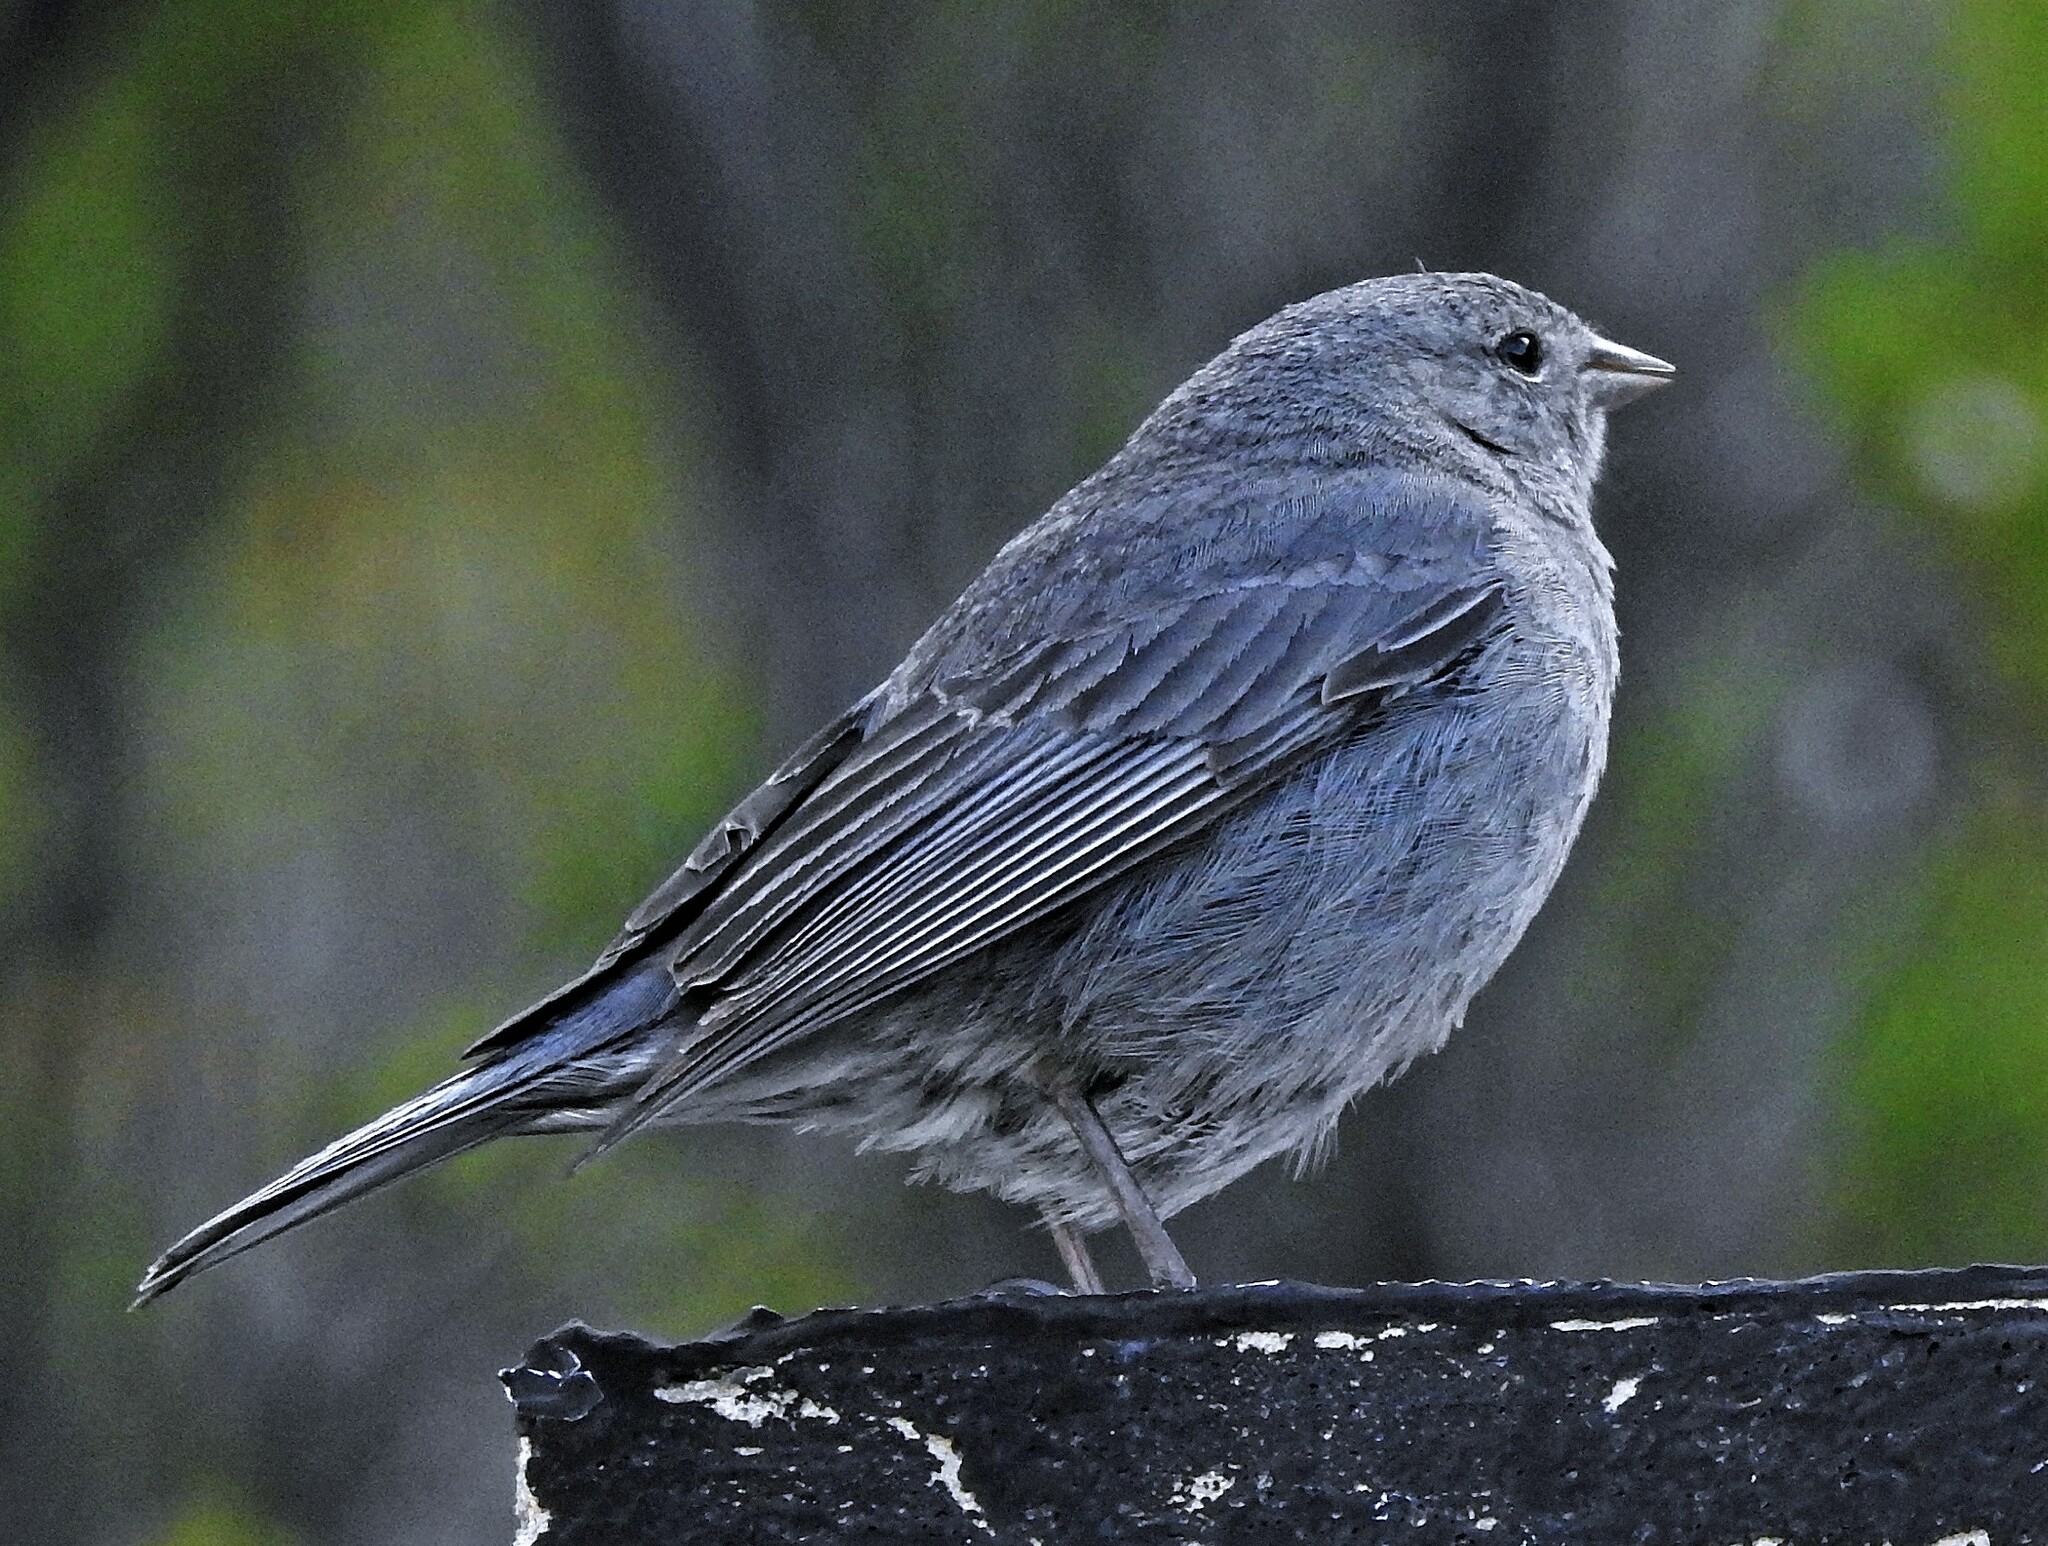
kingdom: Animalia
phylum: Chordata
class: Aves
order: Passeriformes
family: Thraupidae
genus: Geospizopsis
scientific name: Geospizopsis unicolor
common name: Plumbeous sierra-finch
